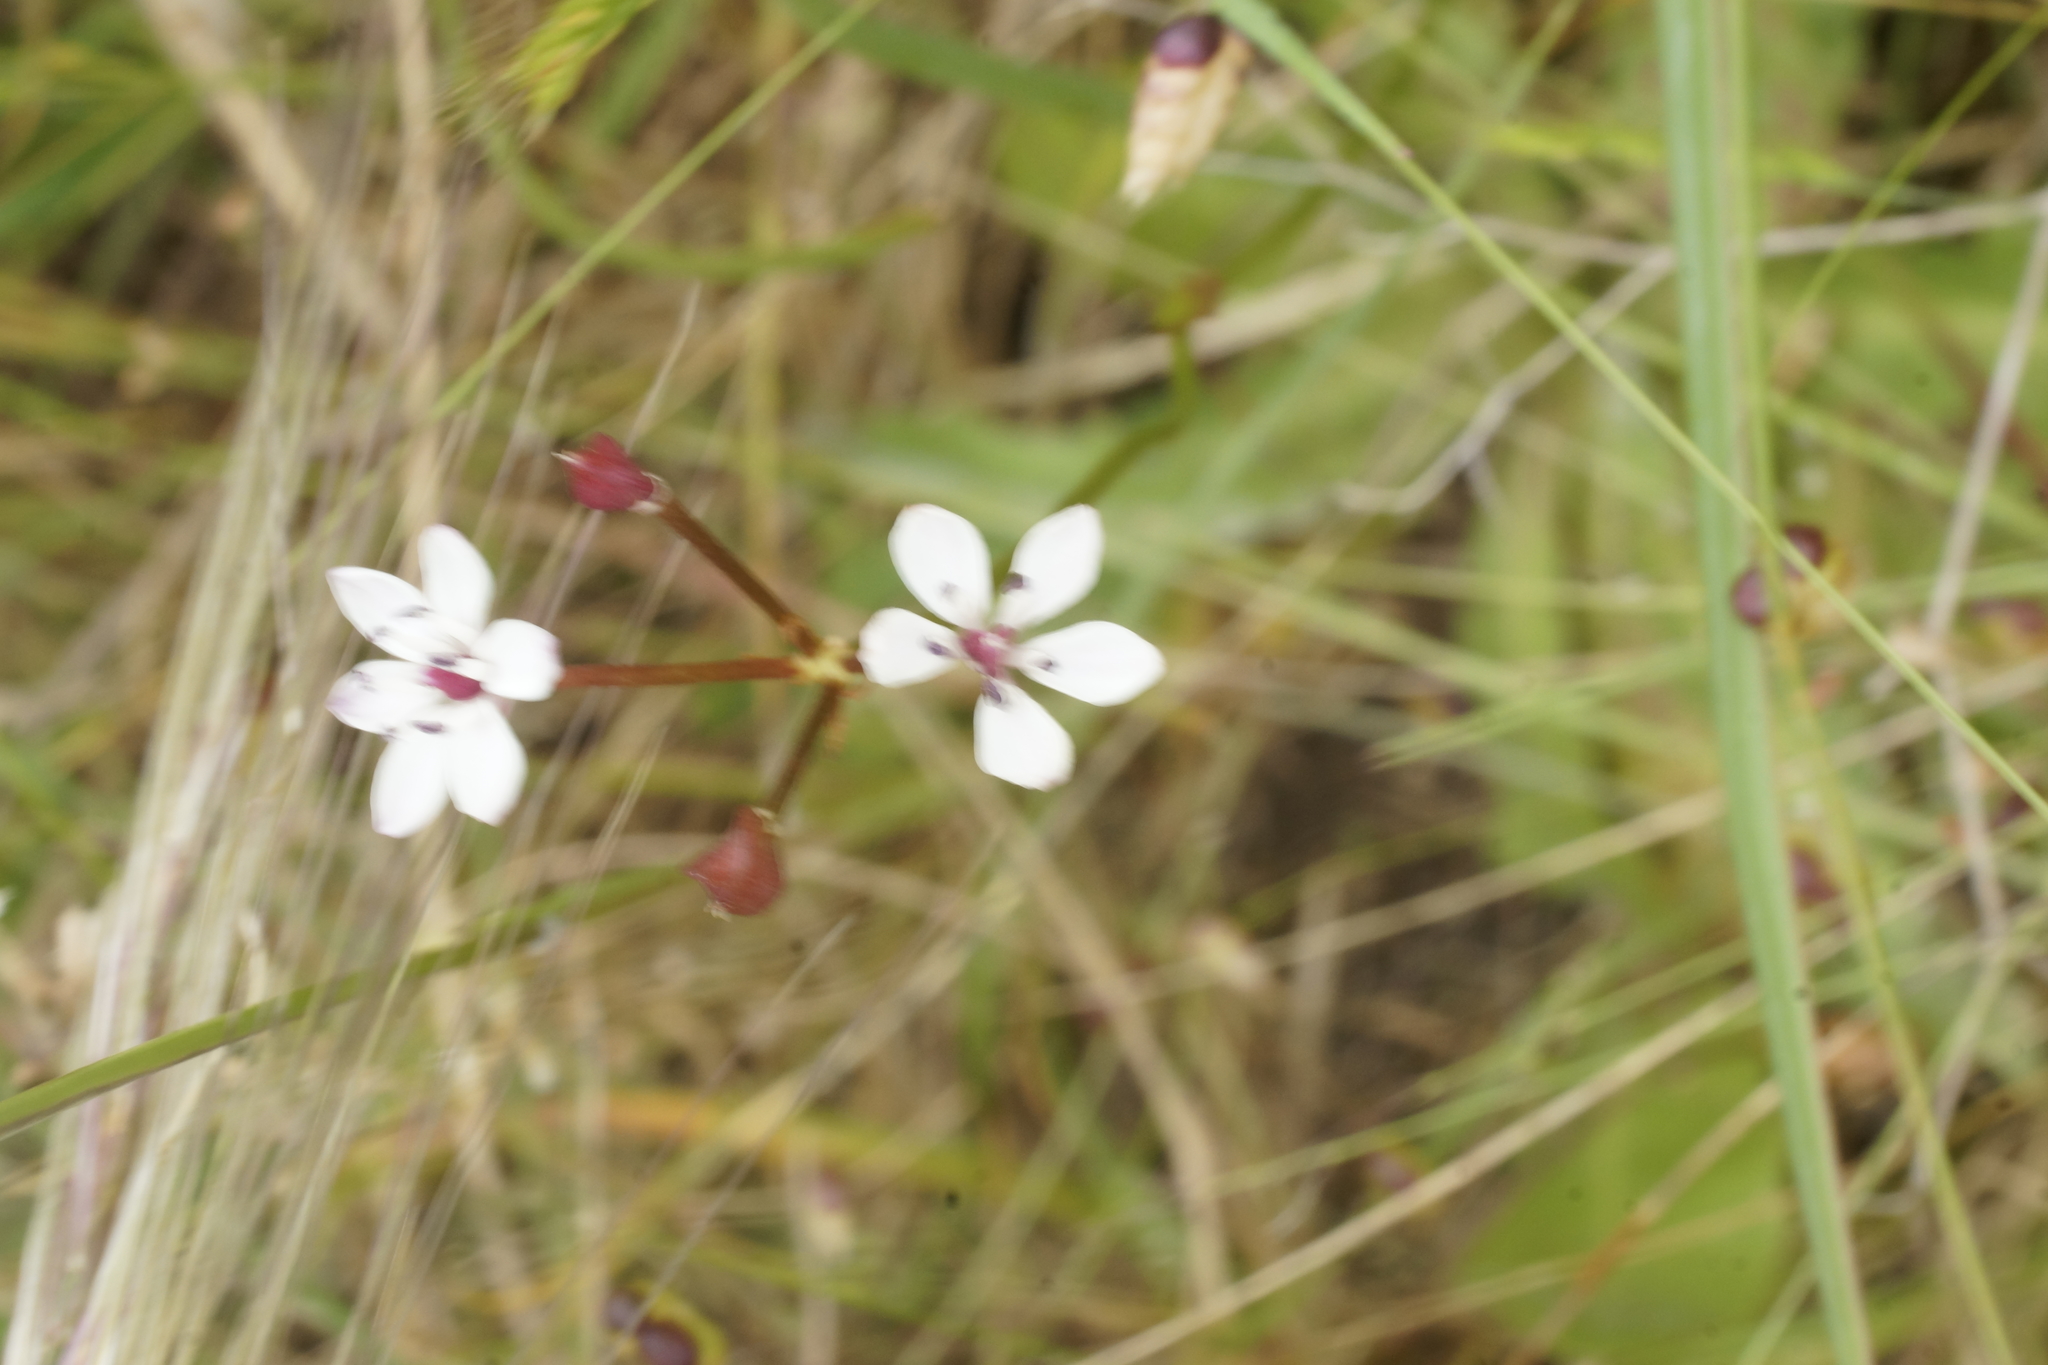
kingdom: Plantae
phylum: Tracheophyta
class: Liliopsida
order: Liliales
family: Colchicaceae
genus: Burchardia
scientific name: Burchardia umbellata
